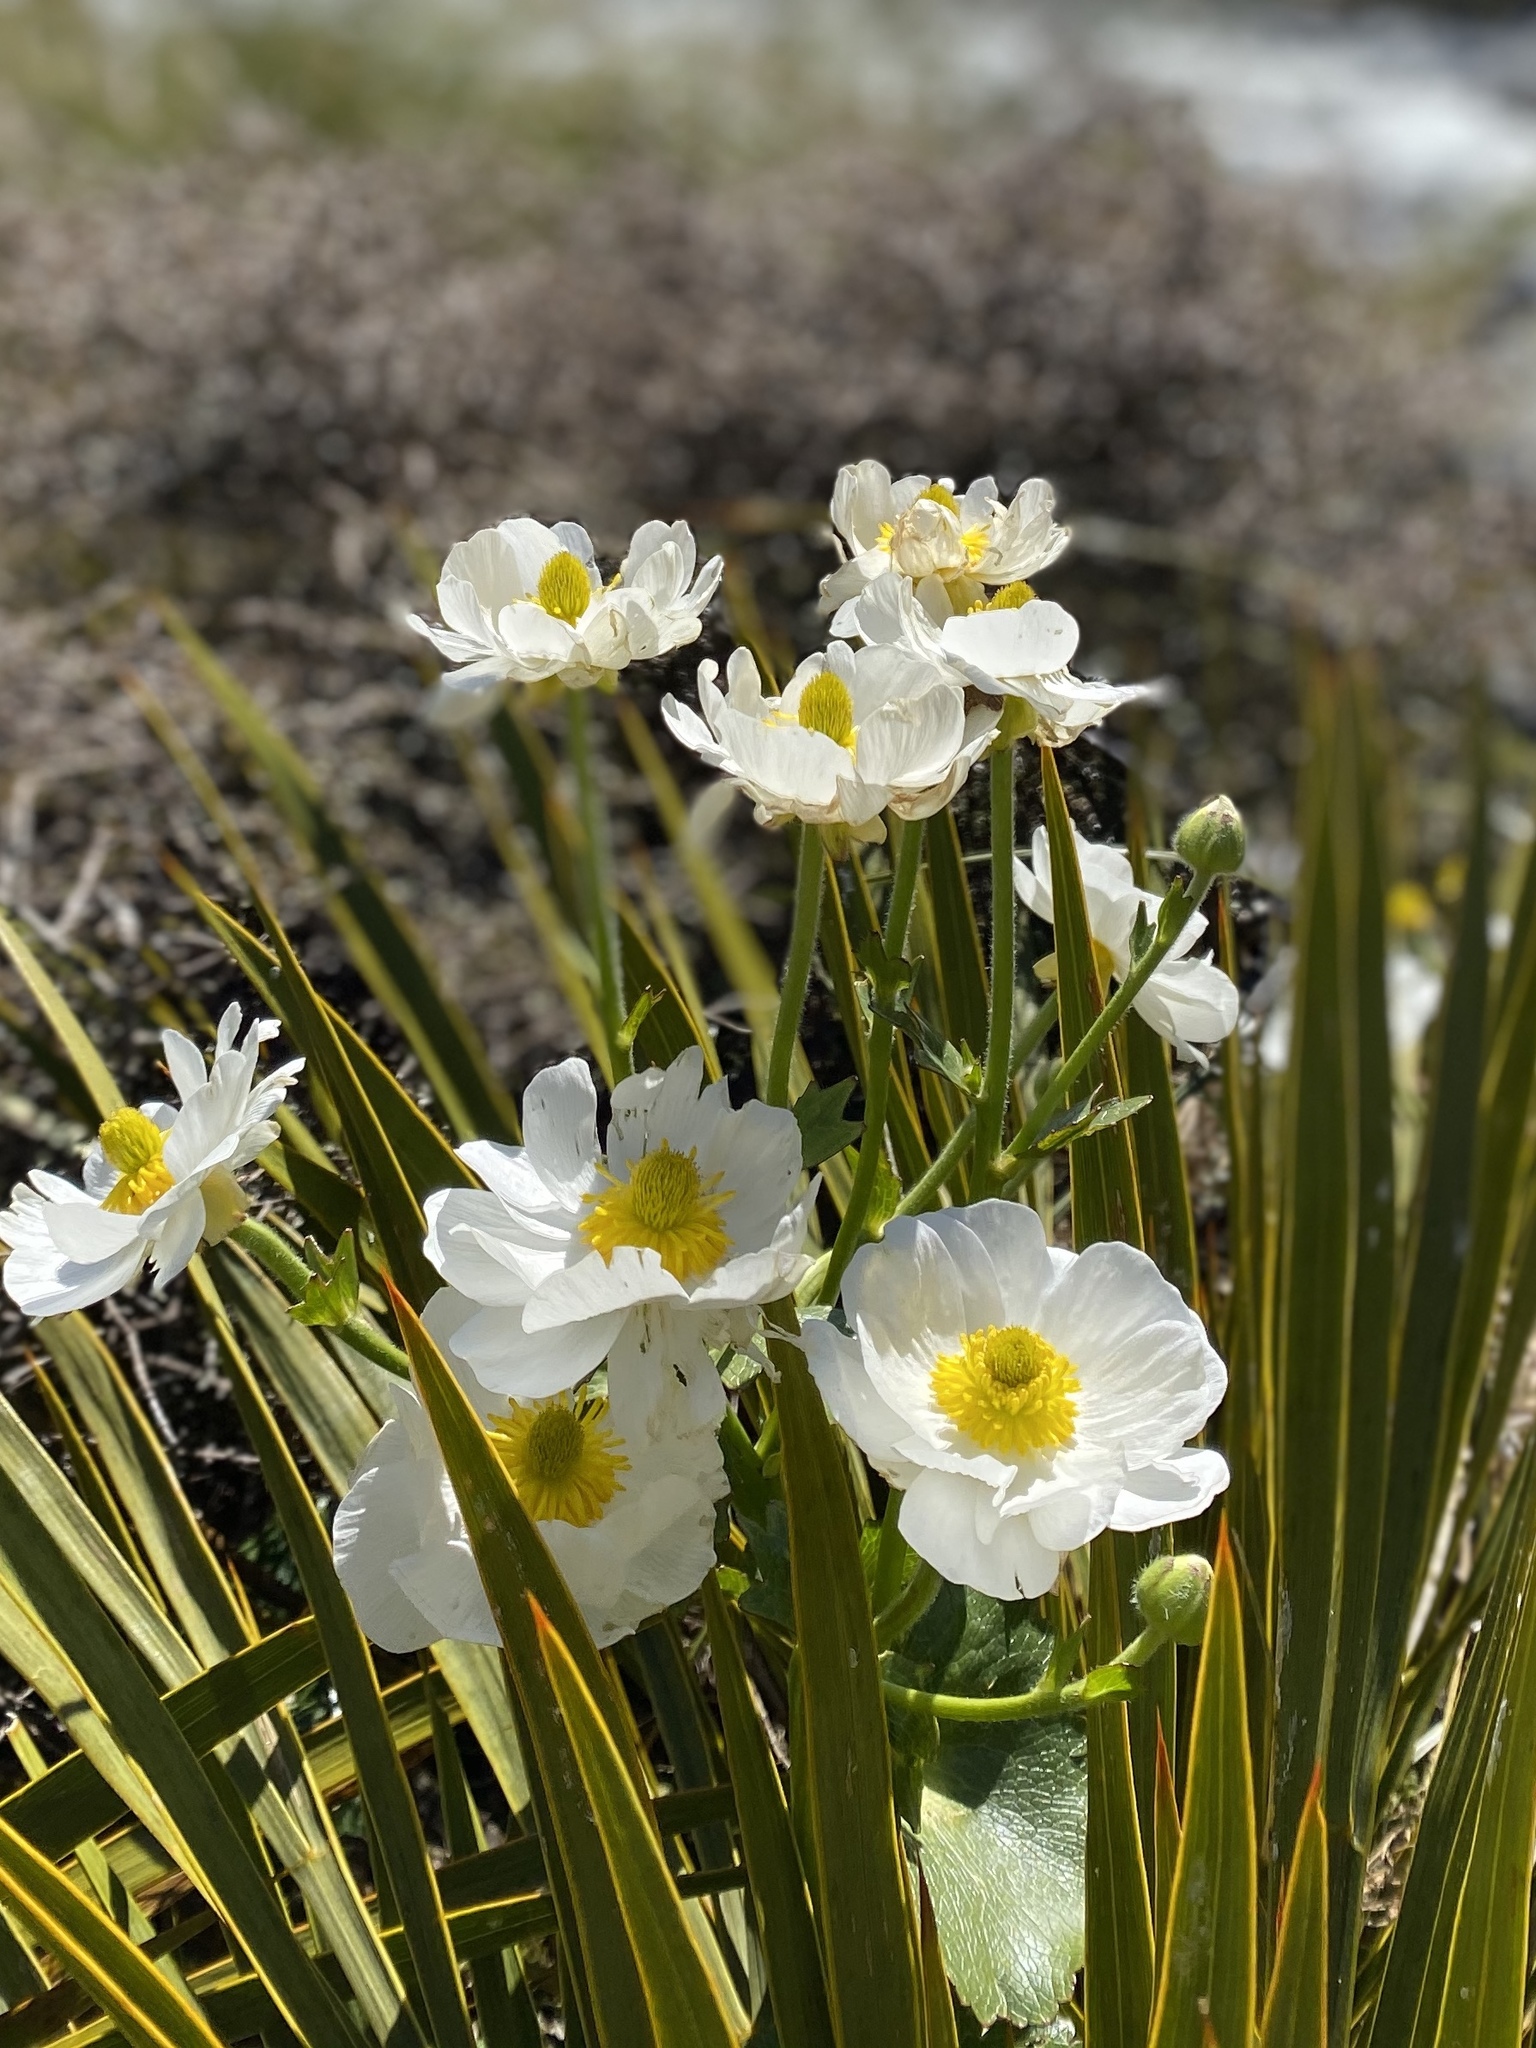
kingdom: Plantae
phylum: Tracheophyta
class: Magnoliopsida
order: Ranunculales
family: Ranunculaceae
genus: Ranunculus
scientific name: Ranunculus lyallii
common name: Mountain-lily
